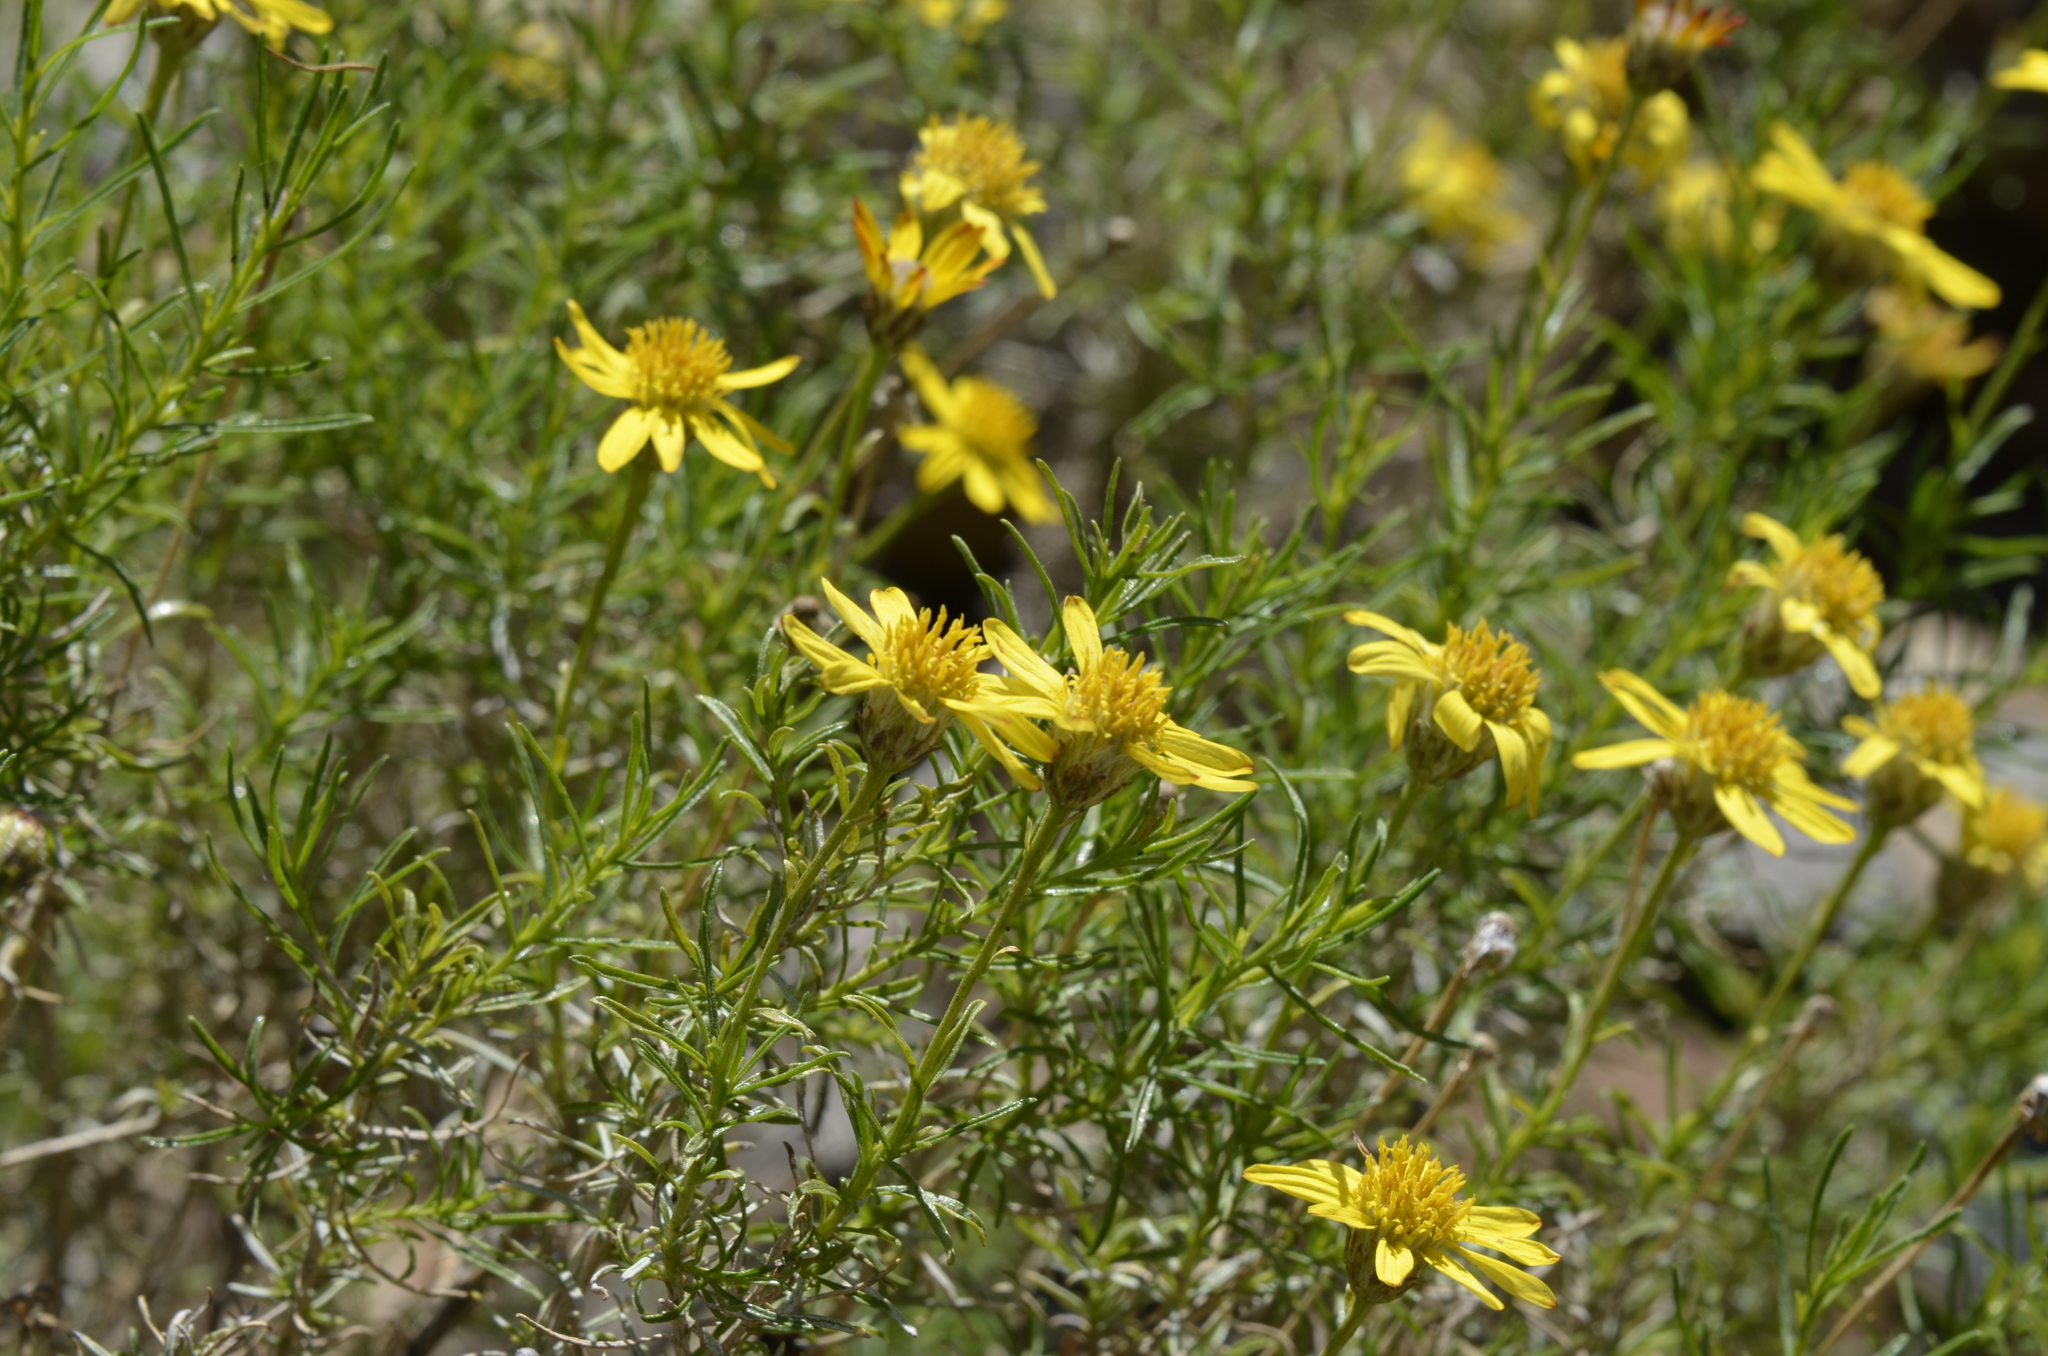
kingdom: Plantae
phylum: Tracheophyta
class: Magnoliopsida
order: Asterales
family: Asteraceae
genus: Ericameria
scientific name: Ericameria linearifolia
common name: Interior goldenbush
